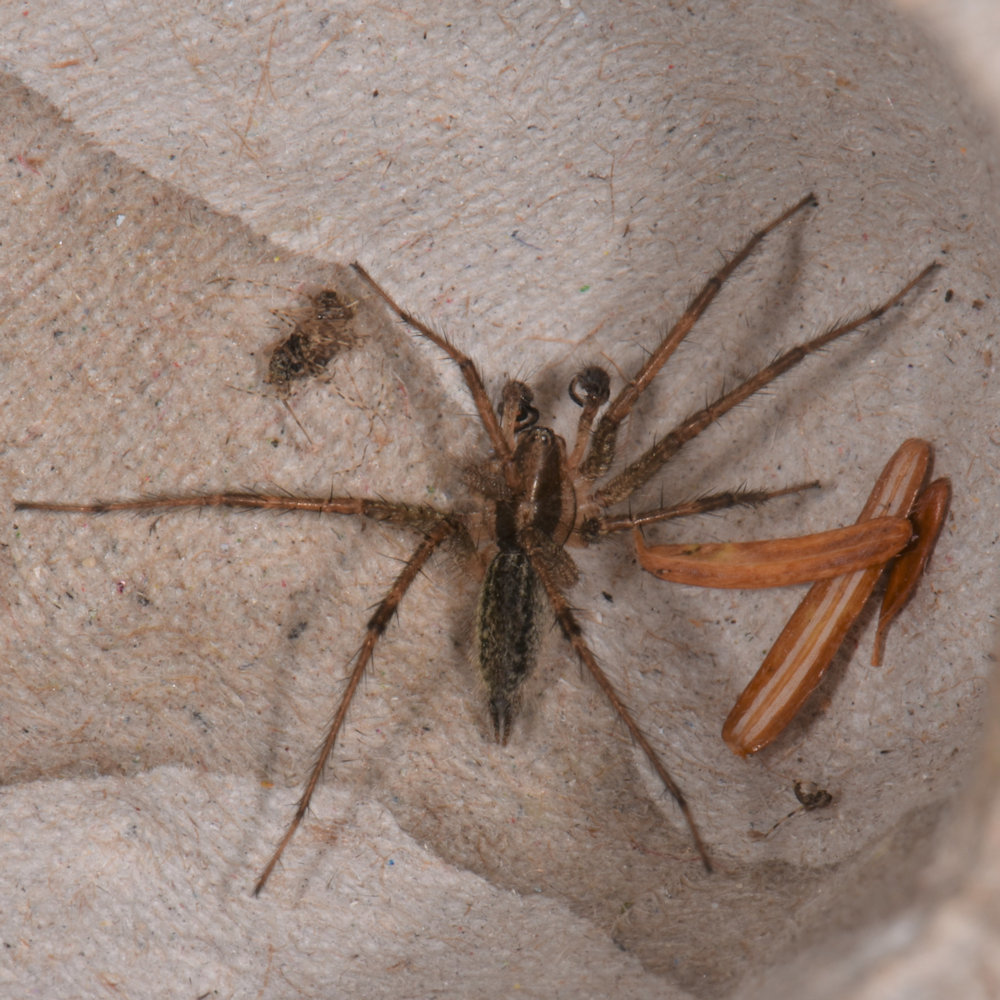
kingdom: Animalia
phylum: Arthropoda
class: Arachnida
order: Araneae
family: Agelenidae
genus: Agelenopsis
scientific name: Agelenopsis
